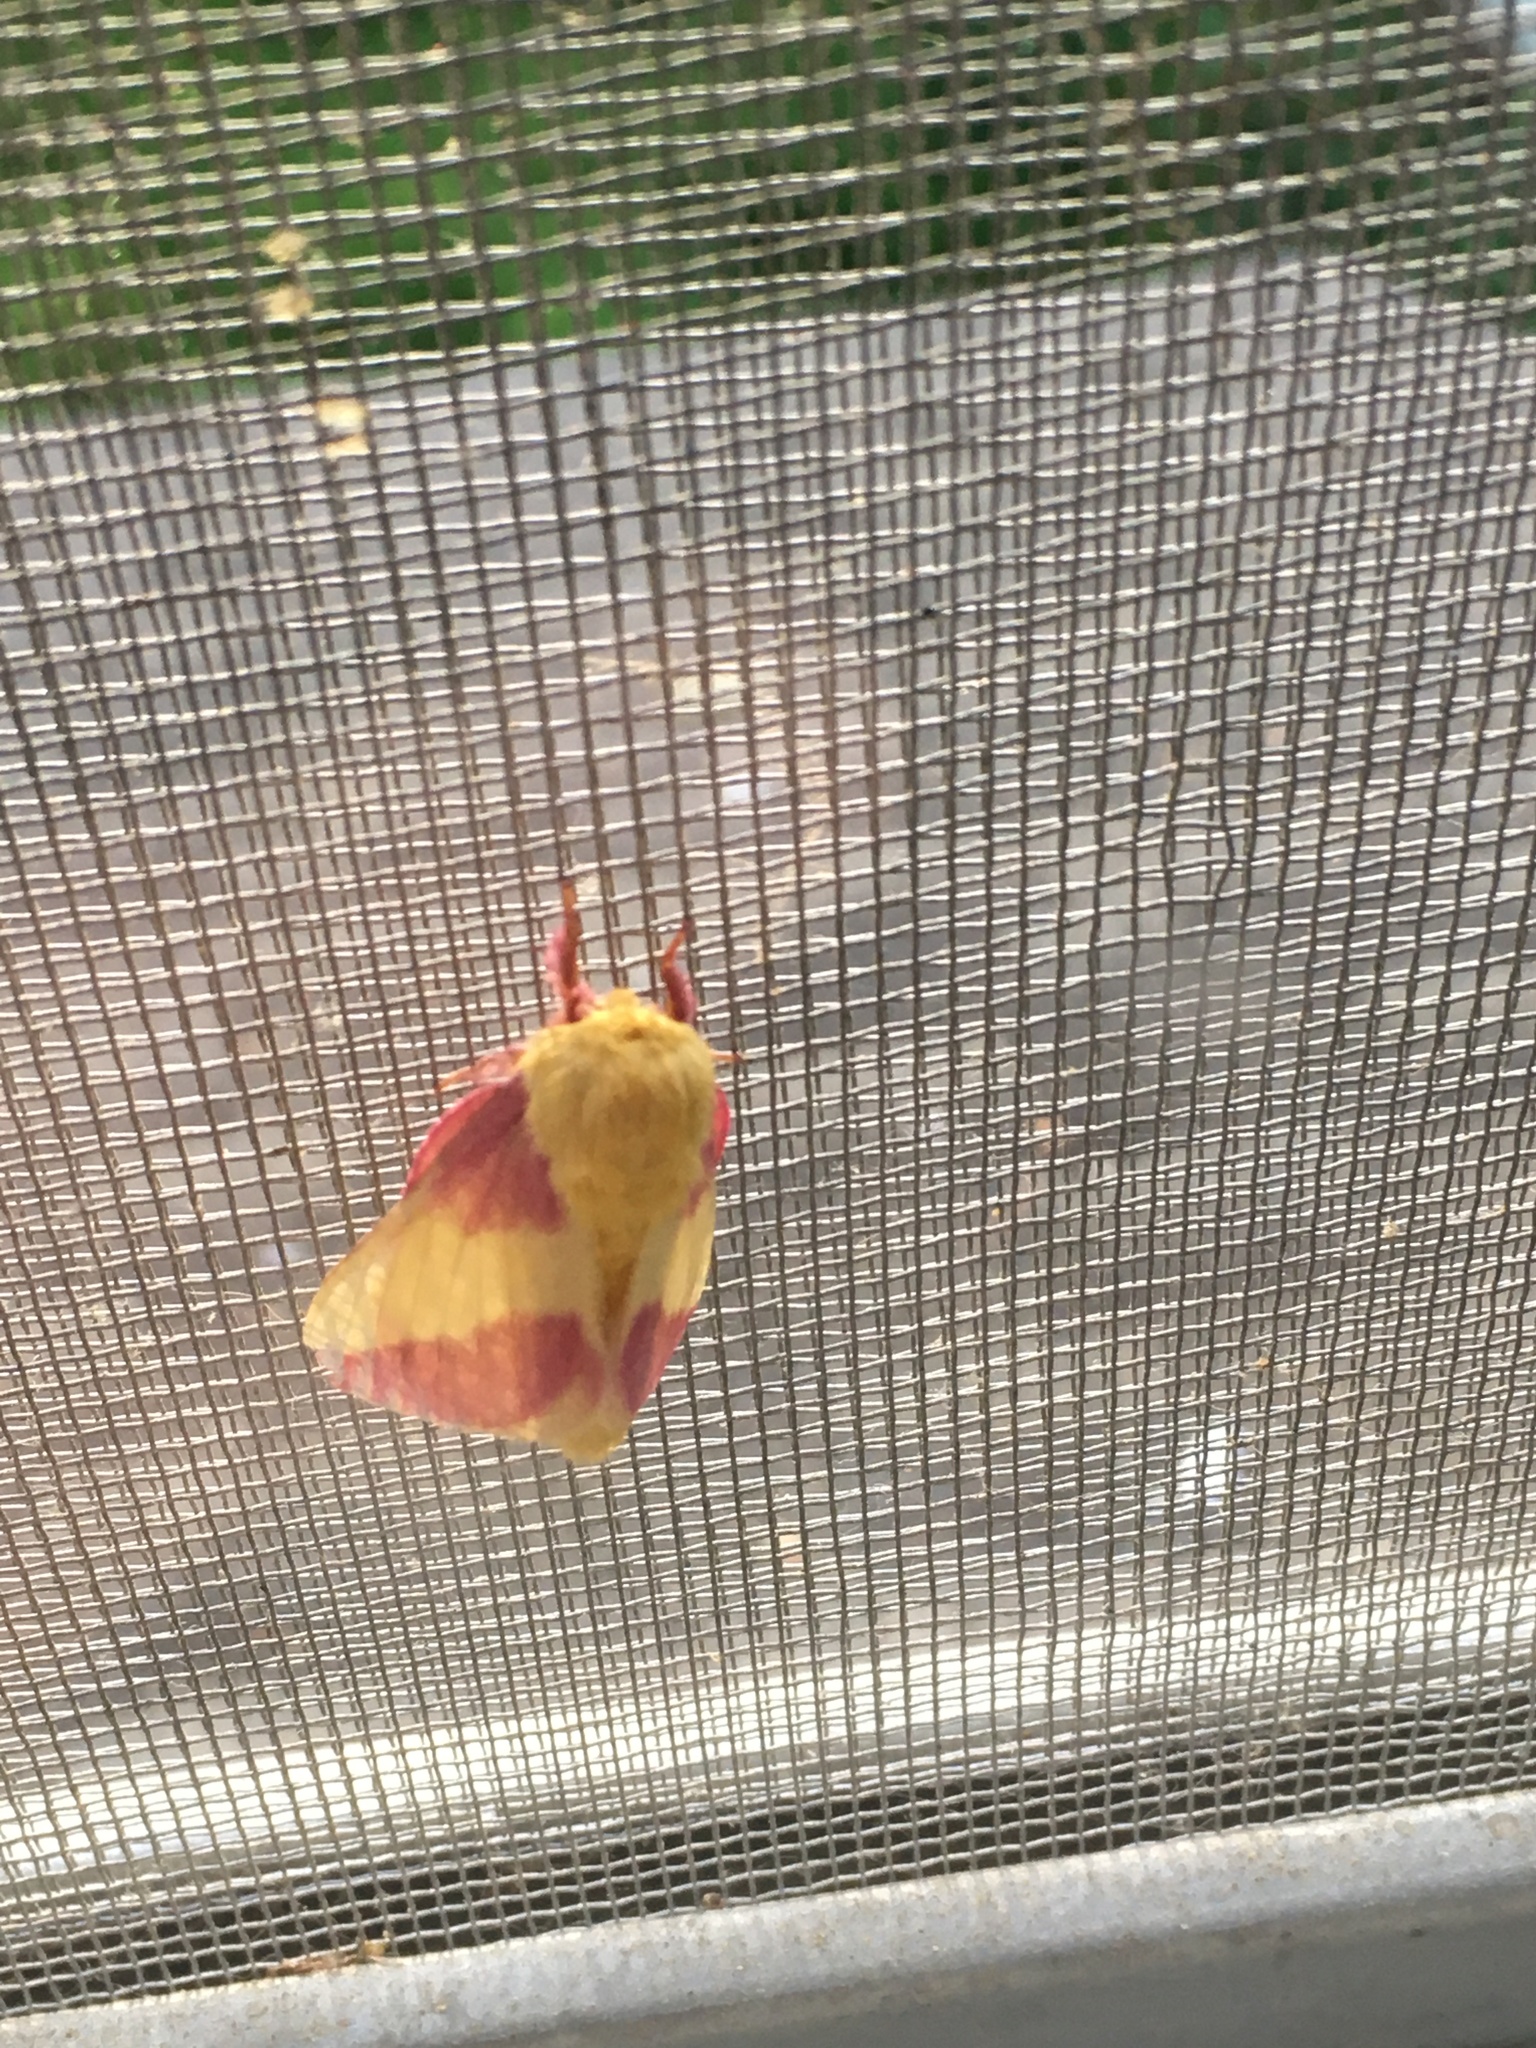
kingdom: Animalia
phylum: Arthropoda
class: Insecta
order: Lepidoptera
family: Saturniidae
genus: Dryocampa
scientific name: Dryocampa rubicunda
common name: Rosy maple moth
